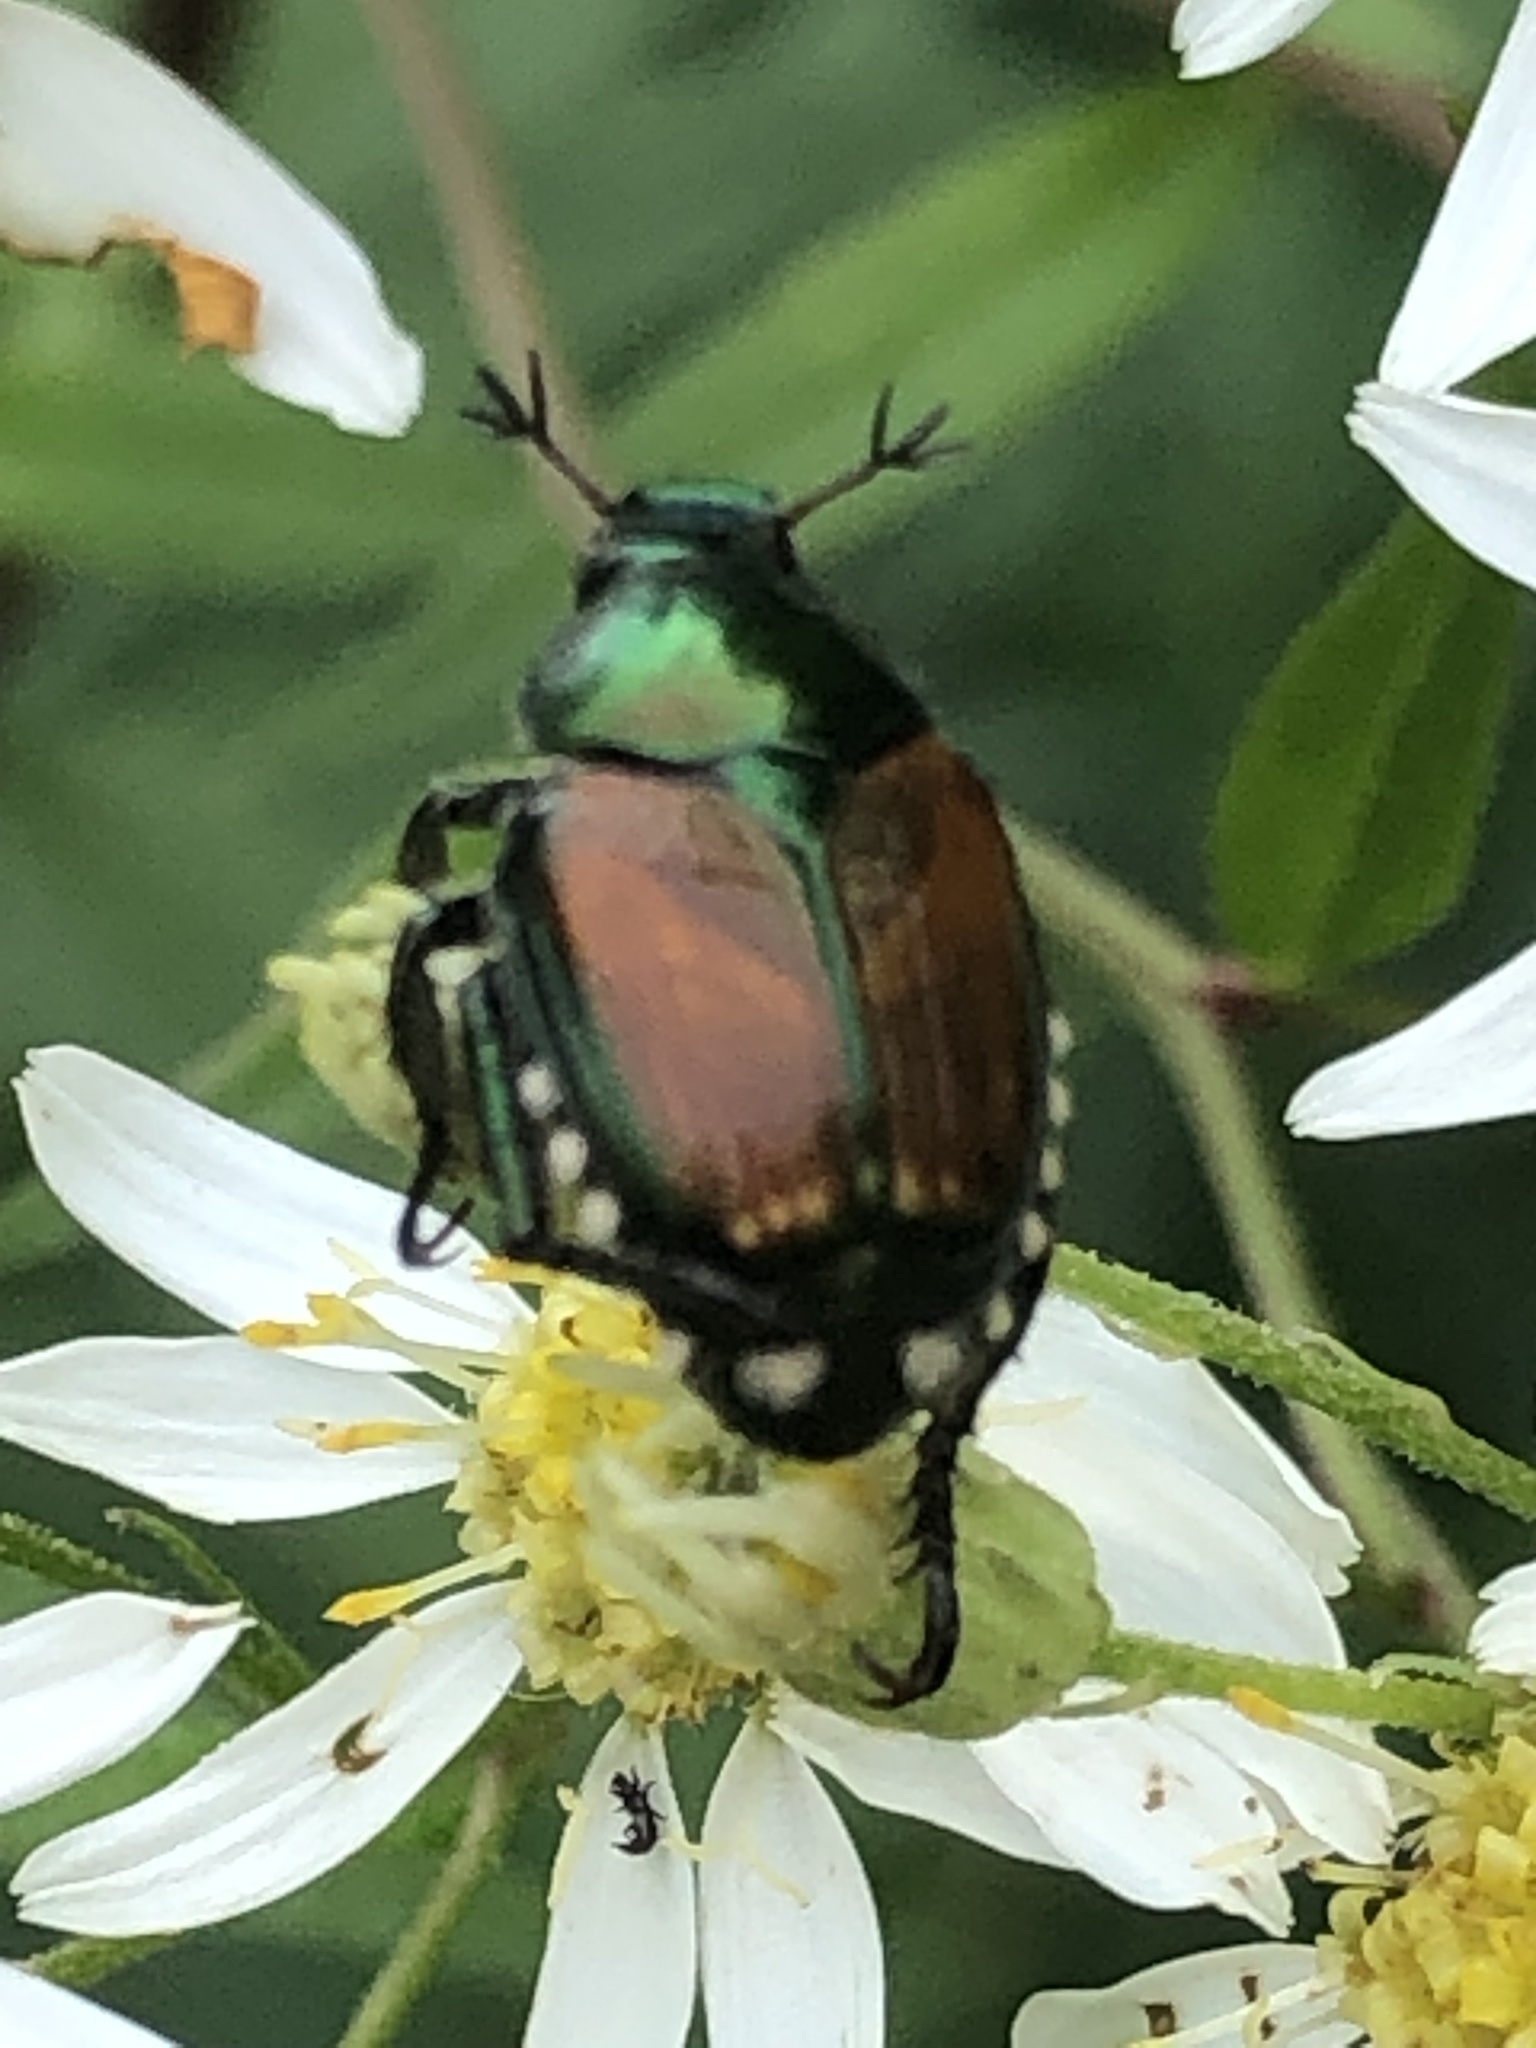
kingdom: Animalia
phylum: Arthropoda
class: Insecta
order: Coleoptera
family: Scarabaeidae
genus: Popillia
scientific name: Popillia japonica
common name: Japanese beetle
